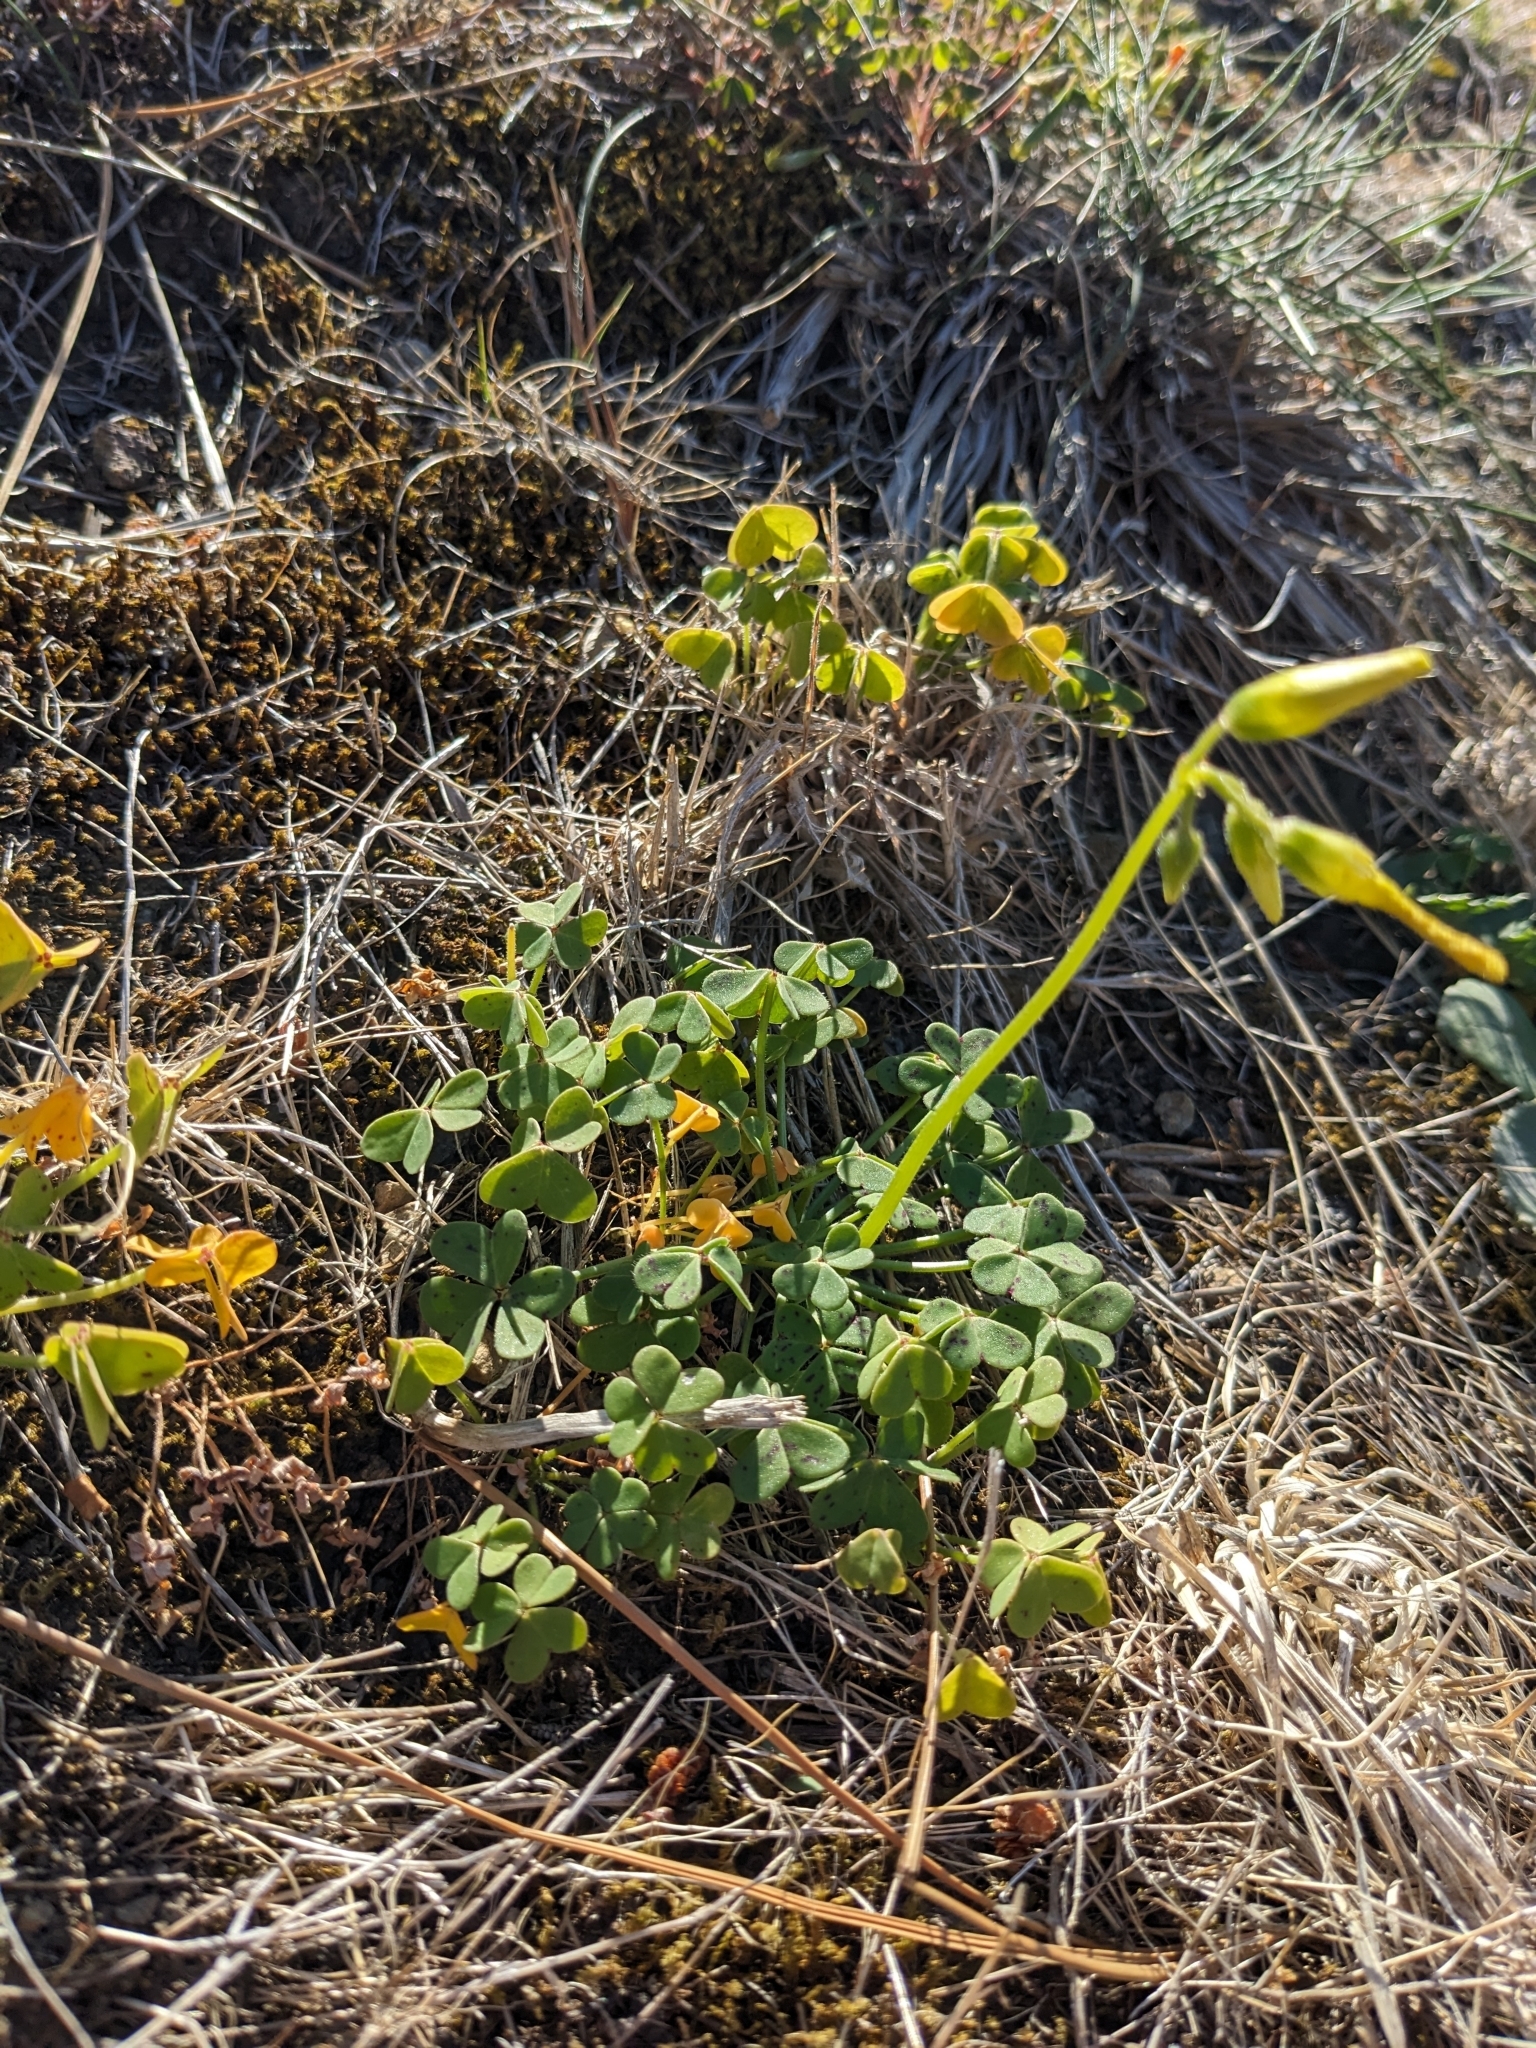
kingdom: Plantae
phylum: Tracheophyta
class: Magnoliopsida
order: Oxalidales
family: Oxalidaceae
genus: Oxalis
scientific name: Oxalis pes-caprae
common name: Bermuda-buttercup
